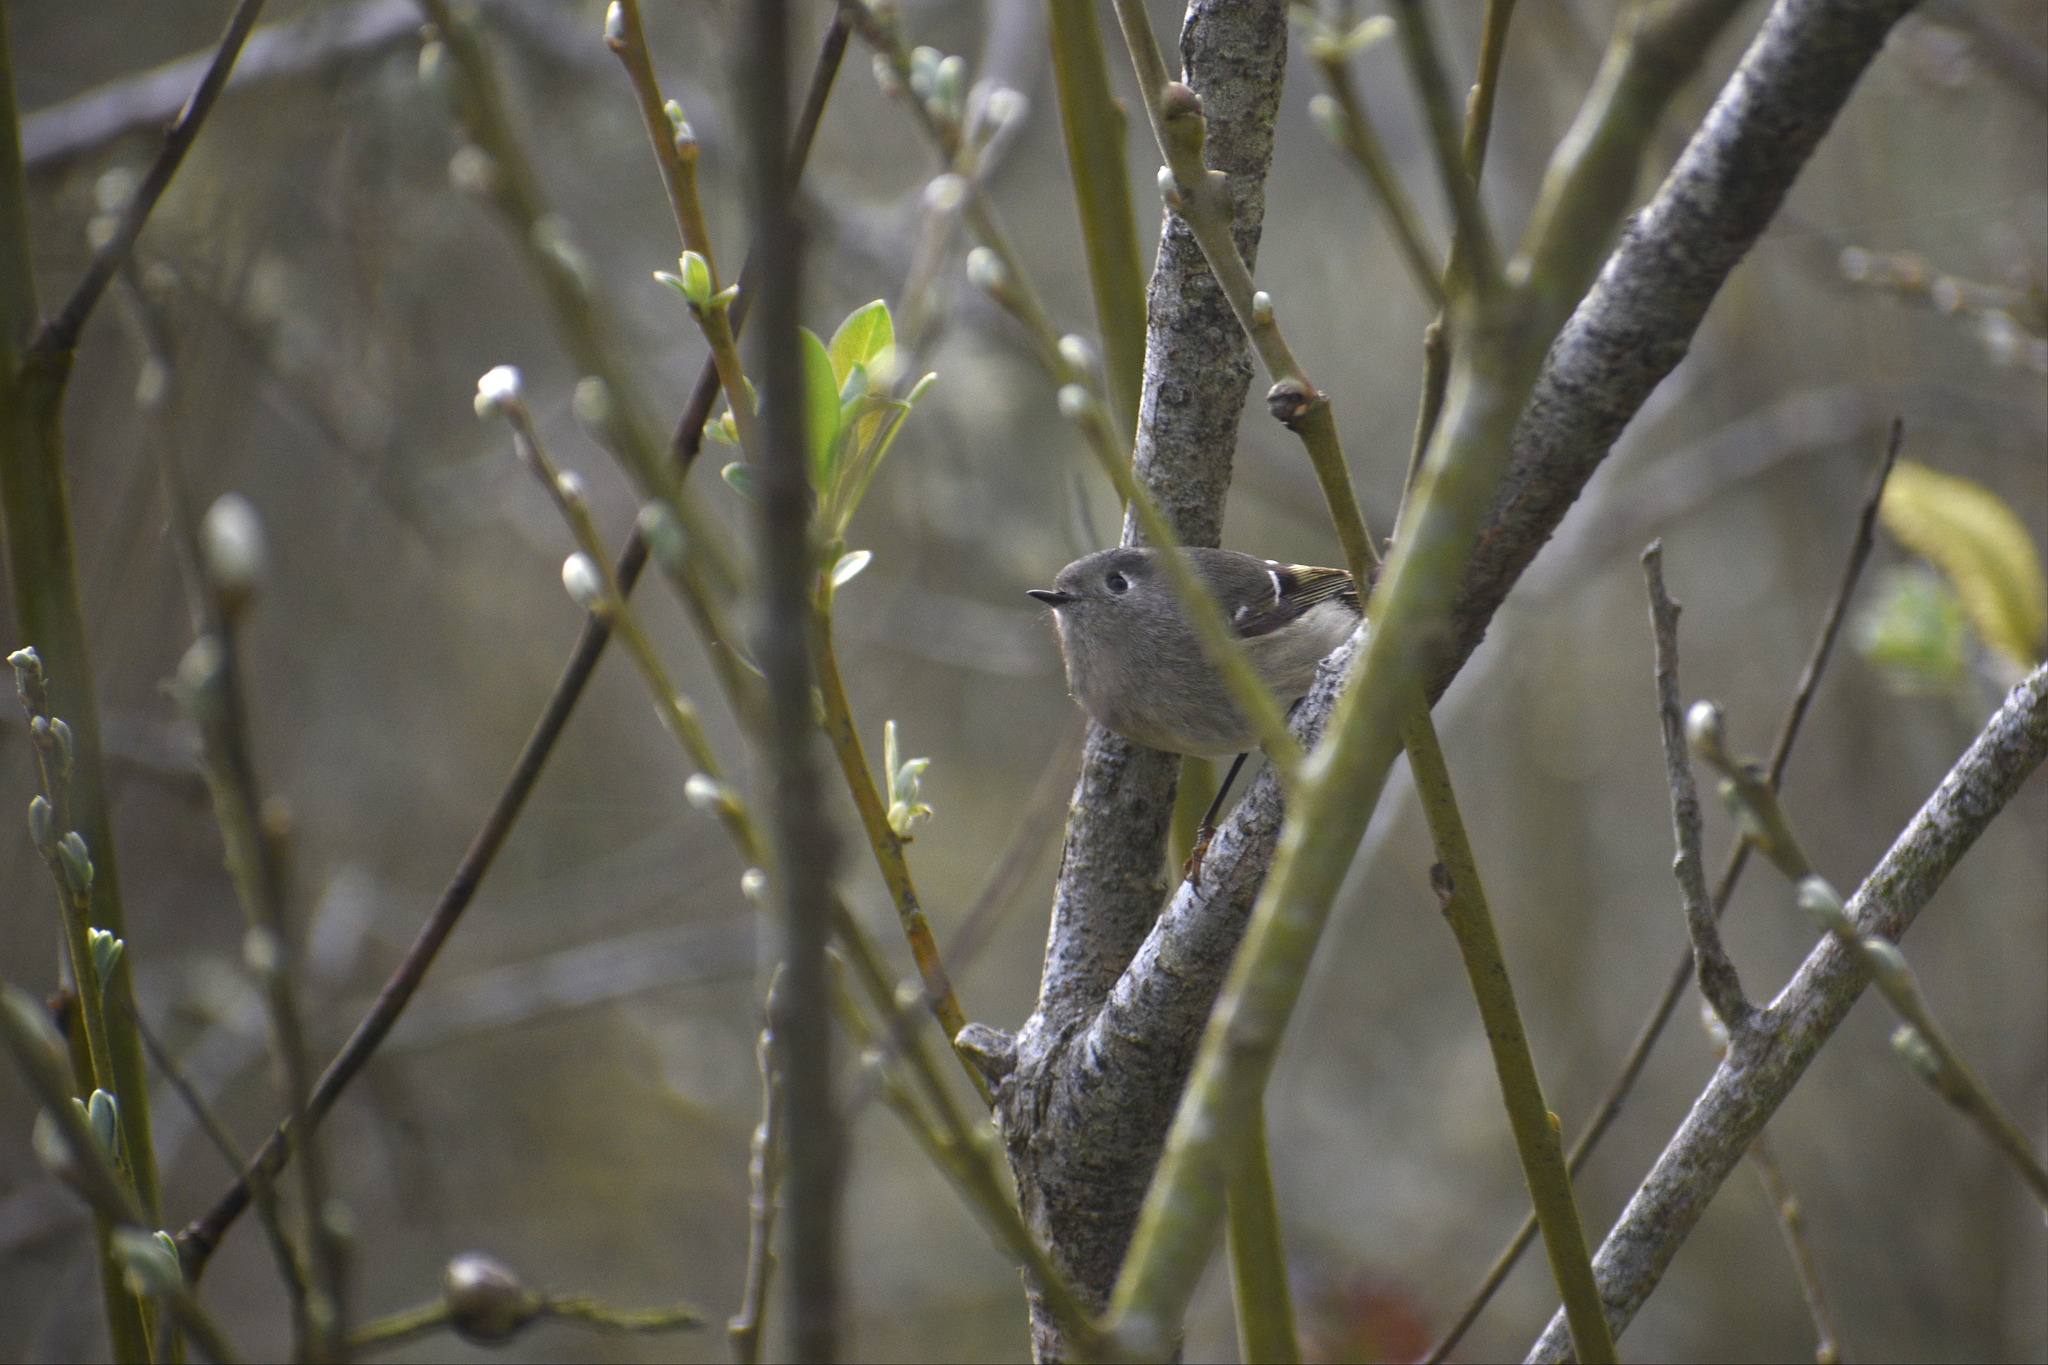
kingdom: Animalia
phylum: Chordata
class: Aves
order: Passeriformes
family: Regulidae
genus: Regulus
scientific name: Regulus calendula
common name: Ruby-crowned kinglet
